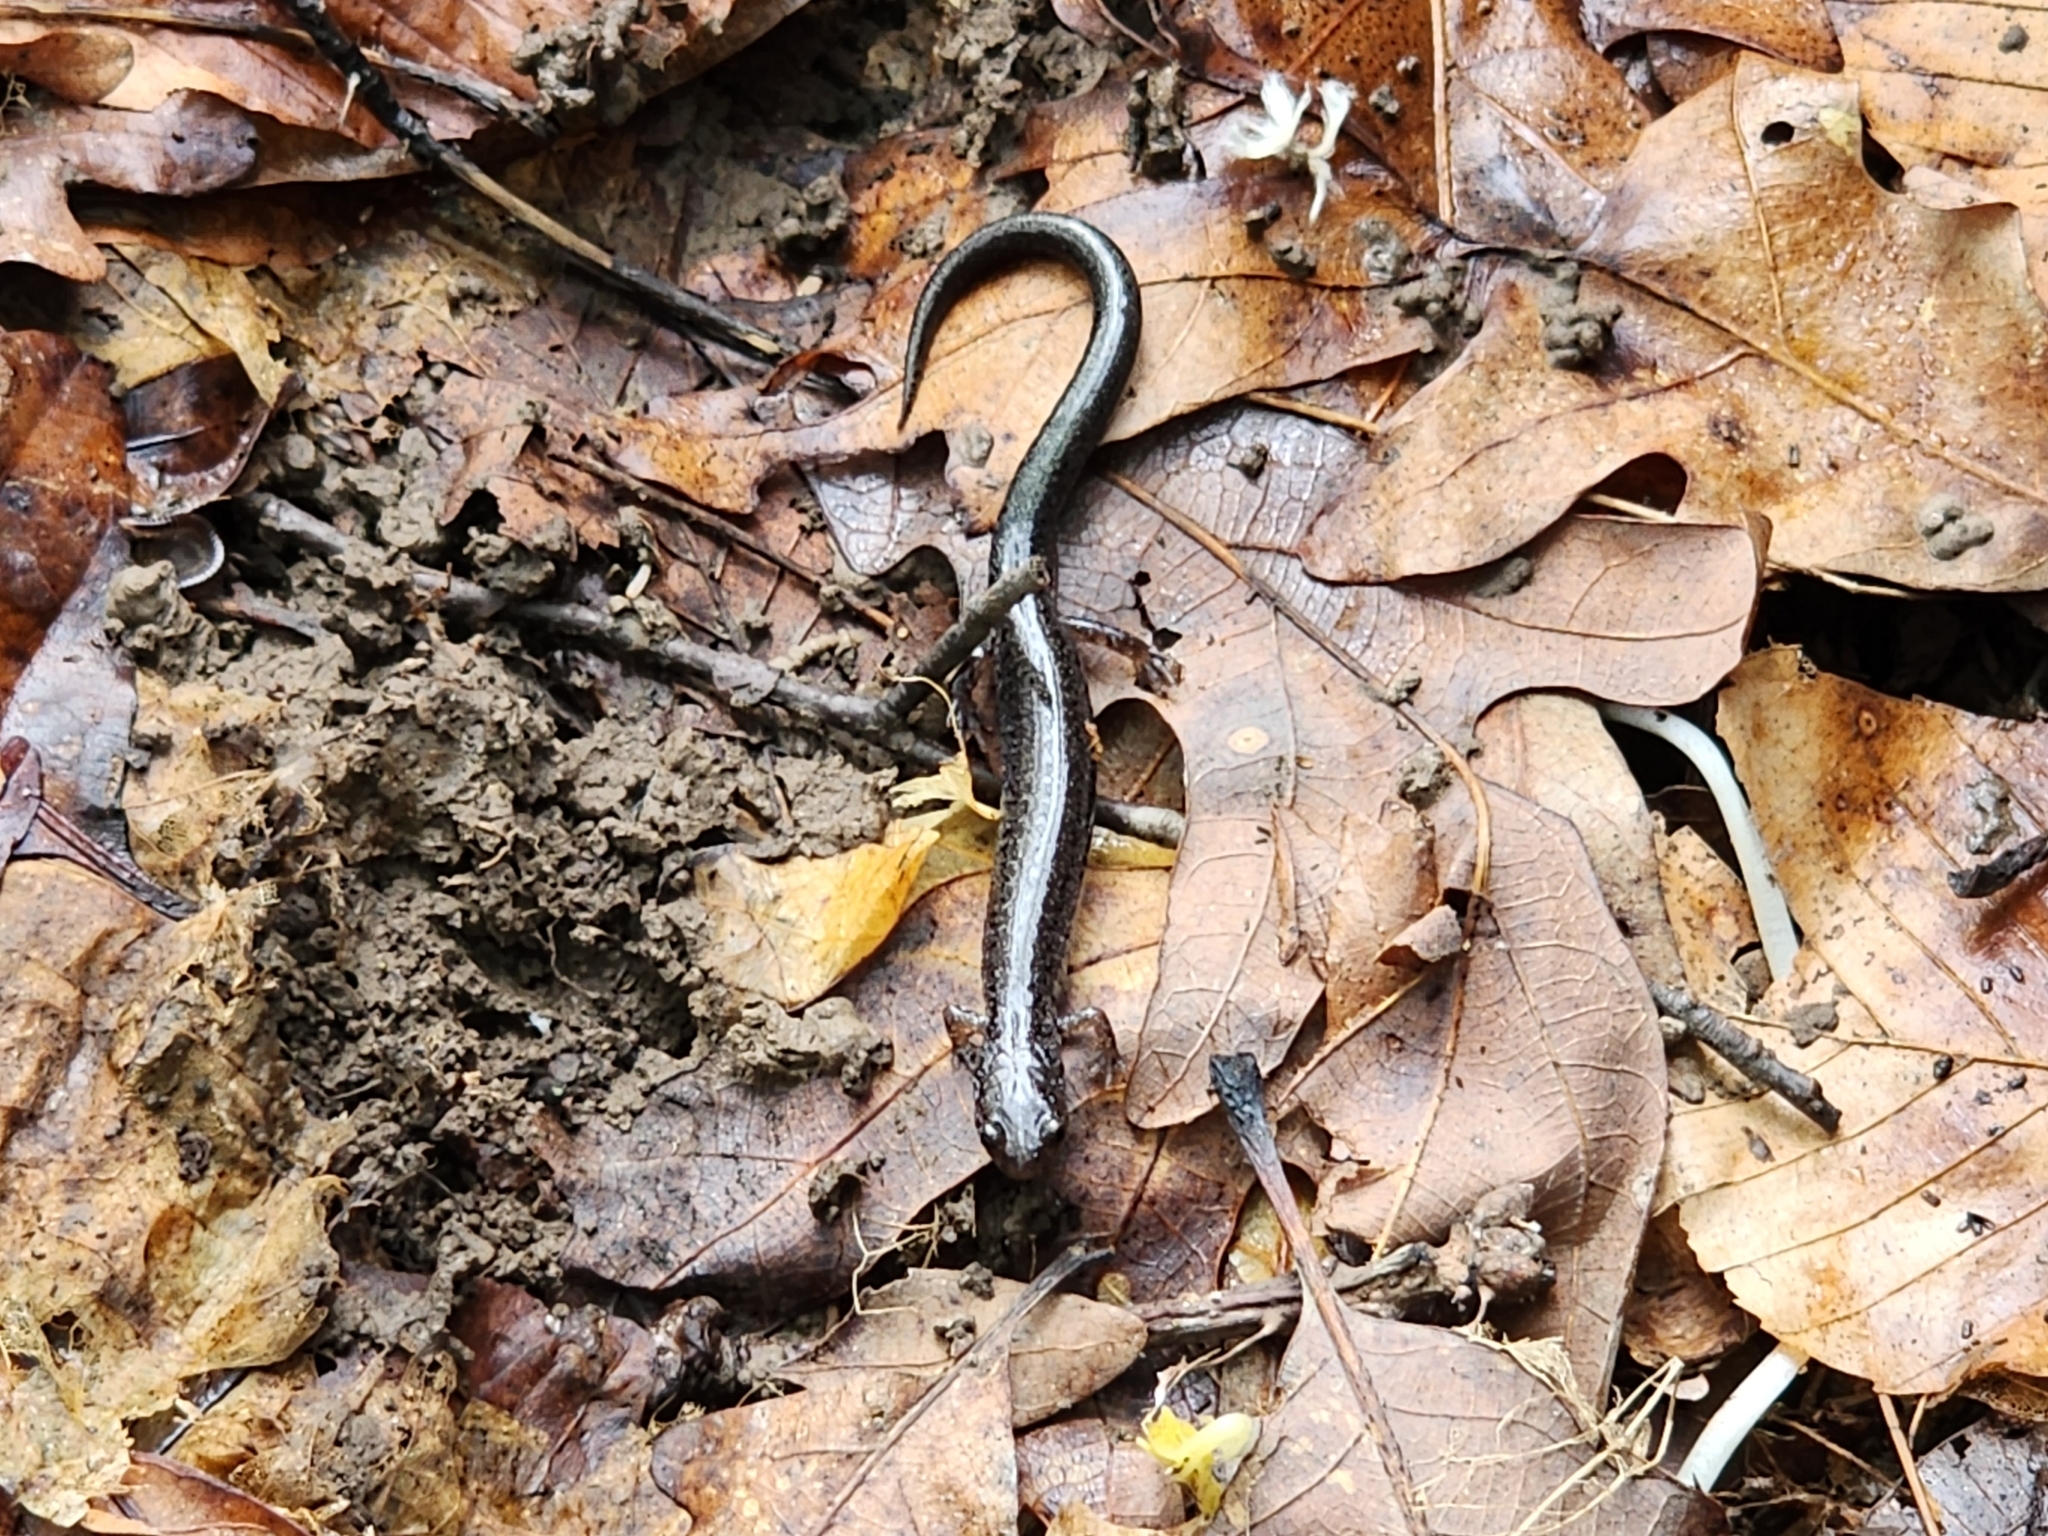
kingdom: Animalia
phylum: Chordata
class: Amphibia
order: Caudata
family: Plethodontidae
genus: Plethodon
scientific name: Plethodon cinereus
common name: Redback salamander
